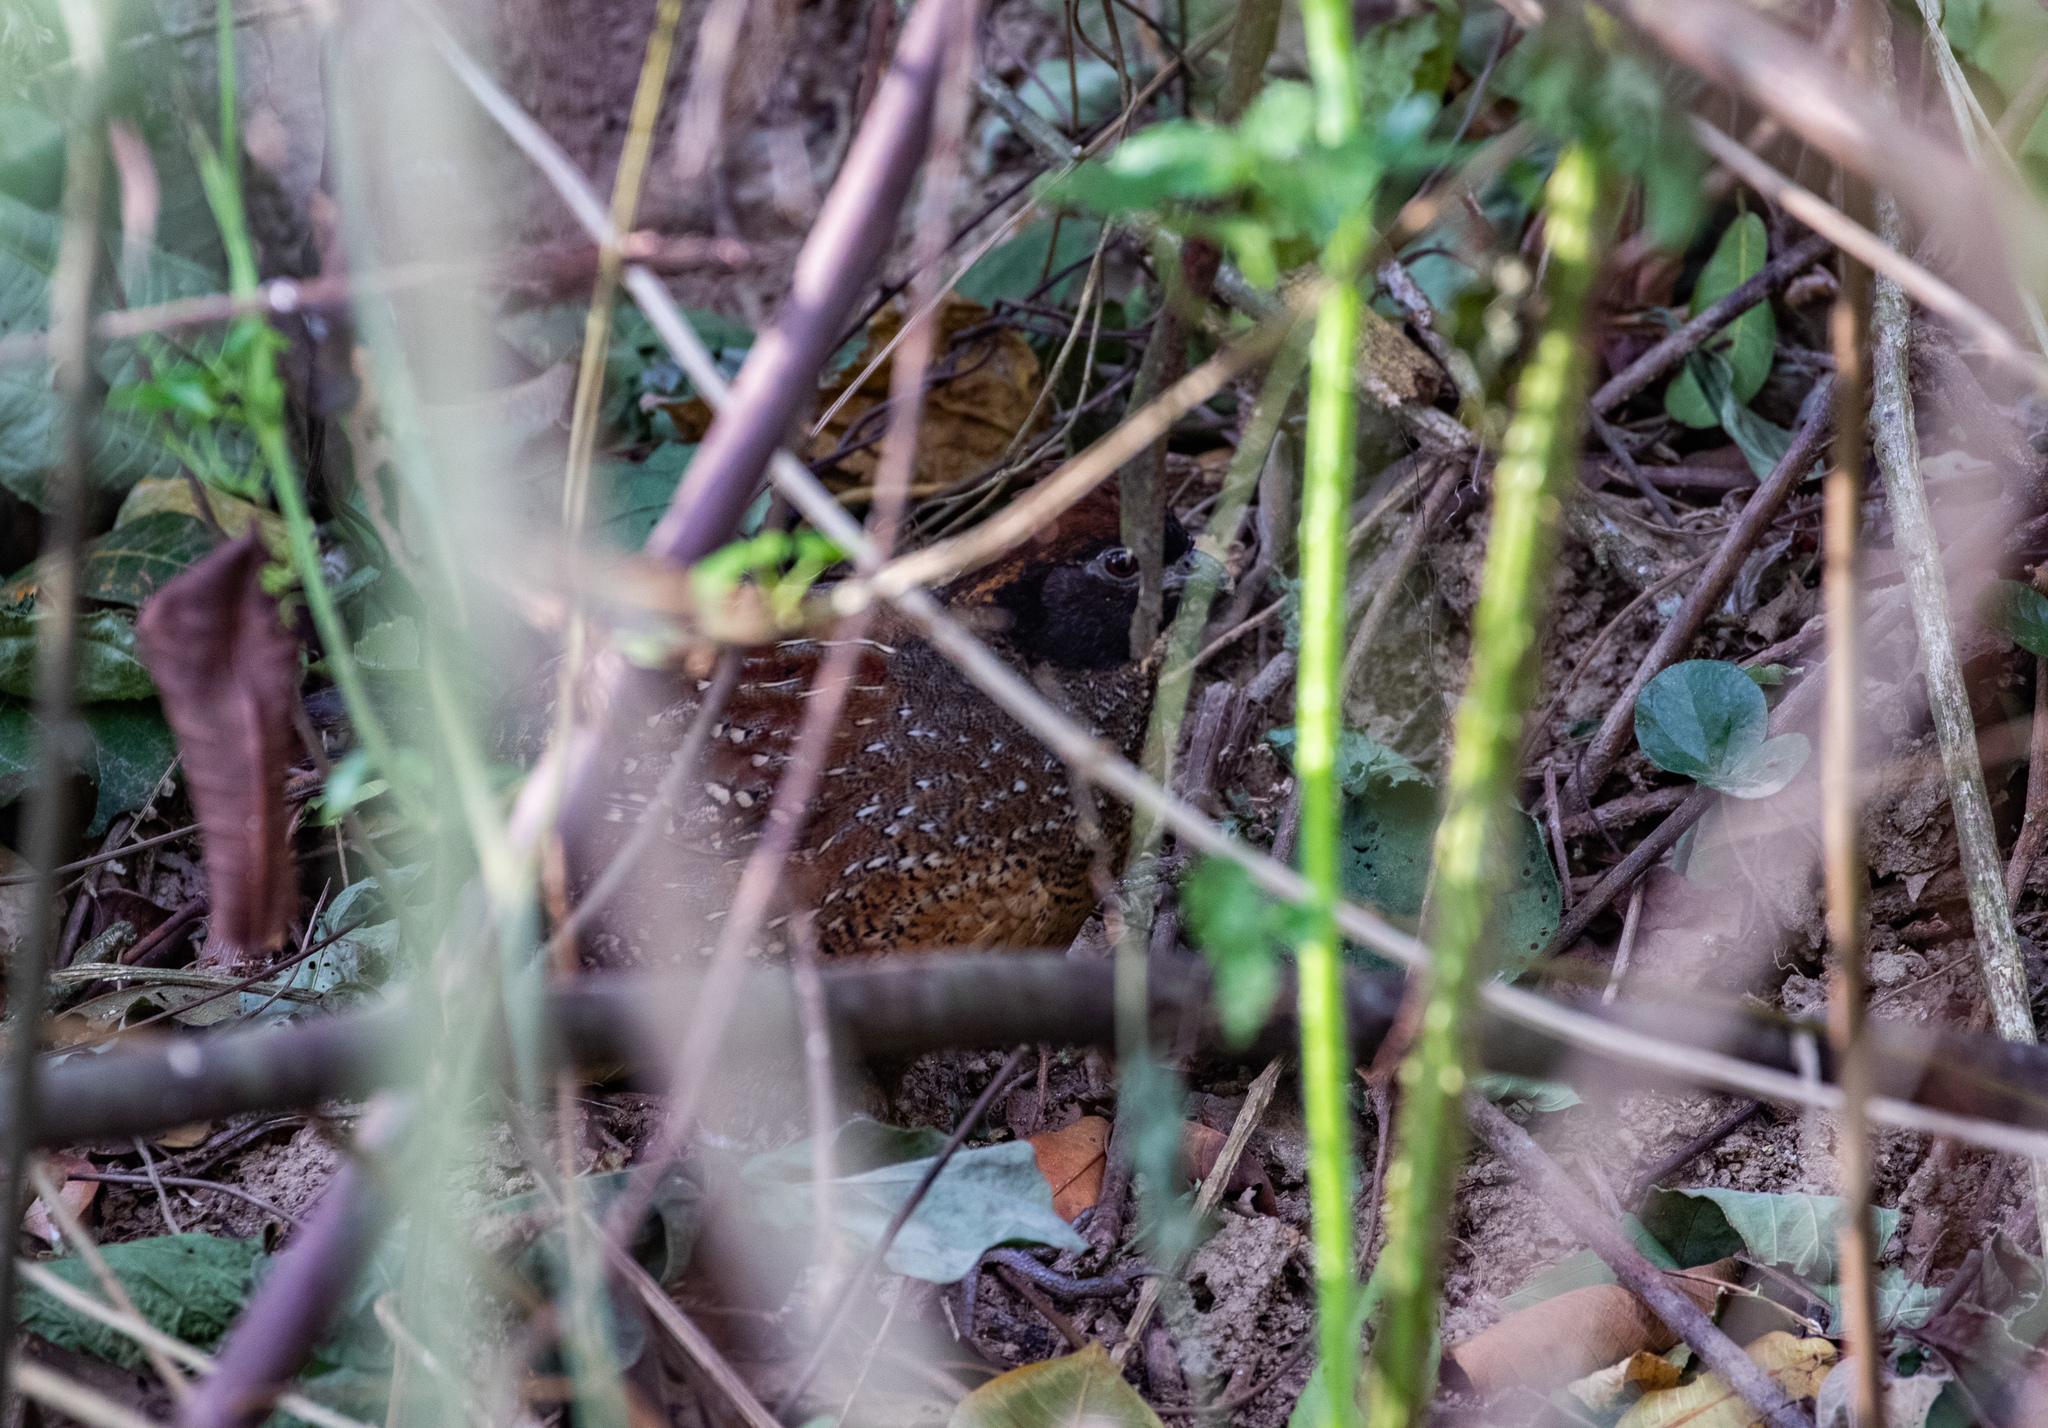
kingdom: Animalia
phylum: Chordata
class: Aves
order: Galliformes
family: Odontophoridae
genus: Odontophorus
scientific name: Odontophorus atrifrons
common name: Black-fronted wood-quail
